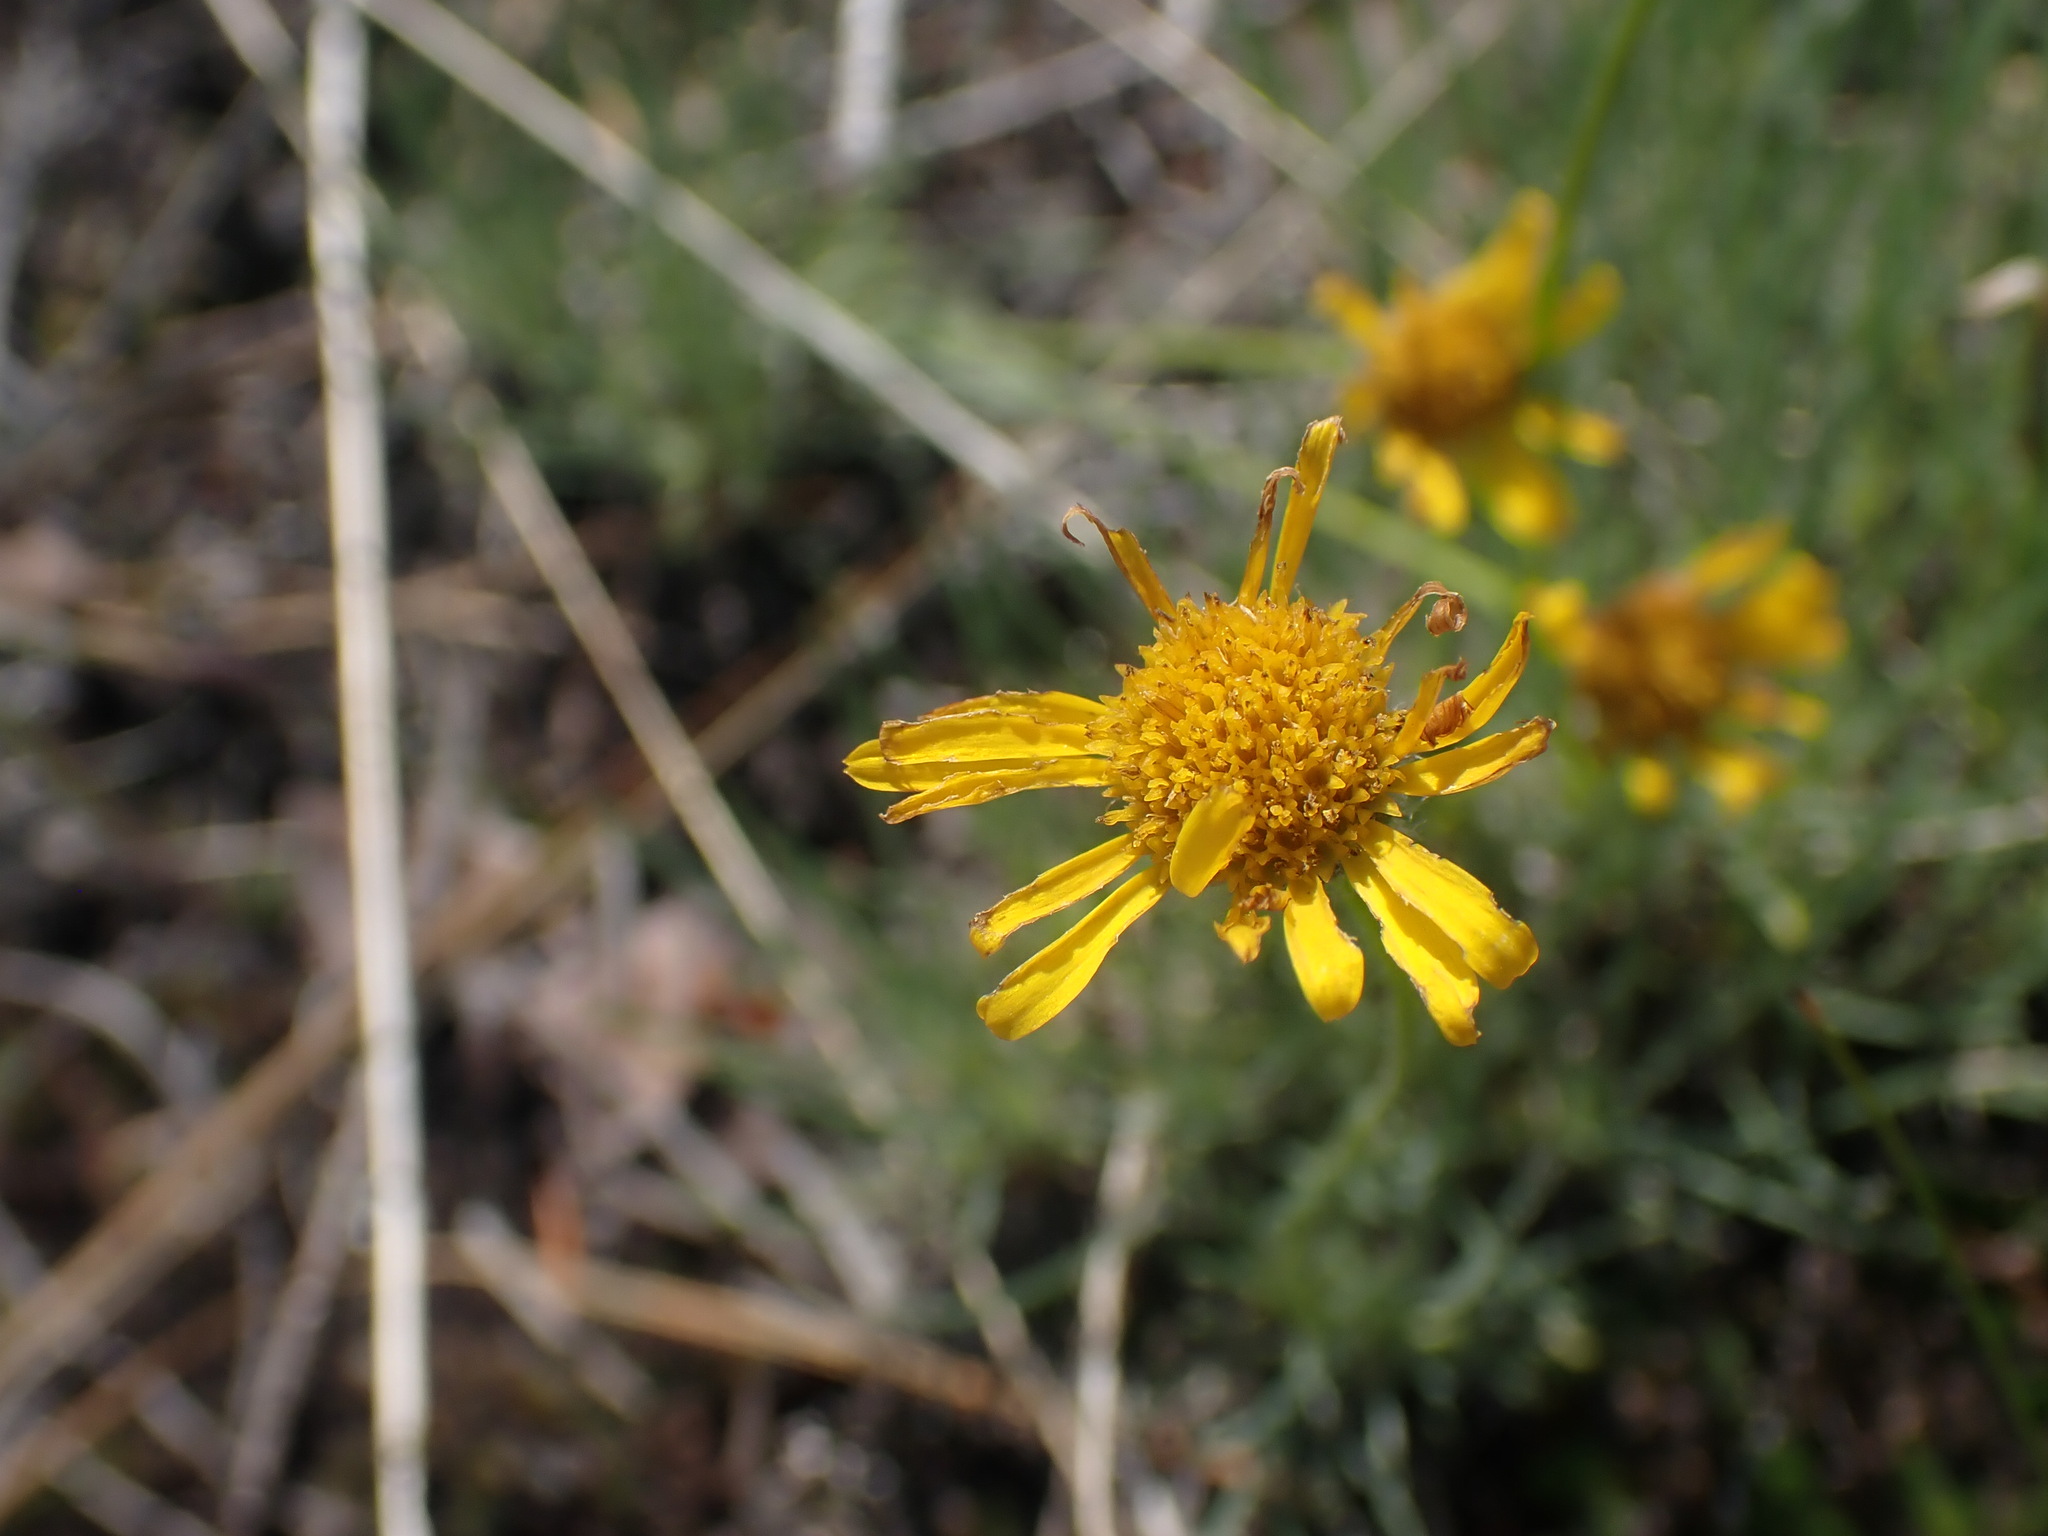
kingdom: Plantae
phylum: Tracheophyta
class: Magnoliopsida
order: Asterales
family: Asteraceae
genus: Erigeron
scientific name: Erigeron linearis
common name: Desert yellow fleabane
